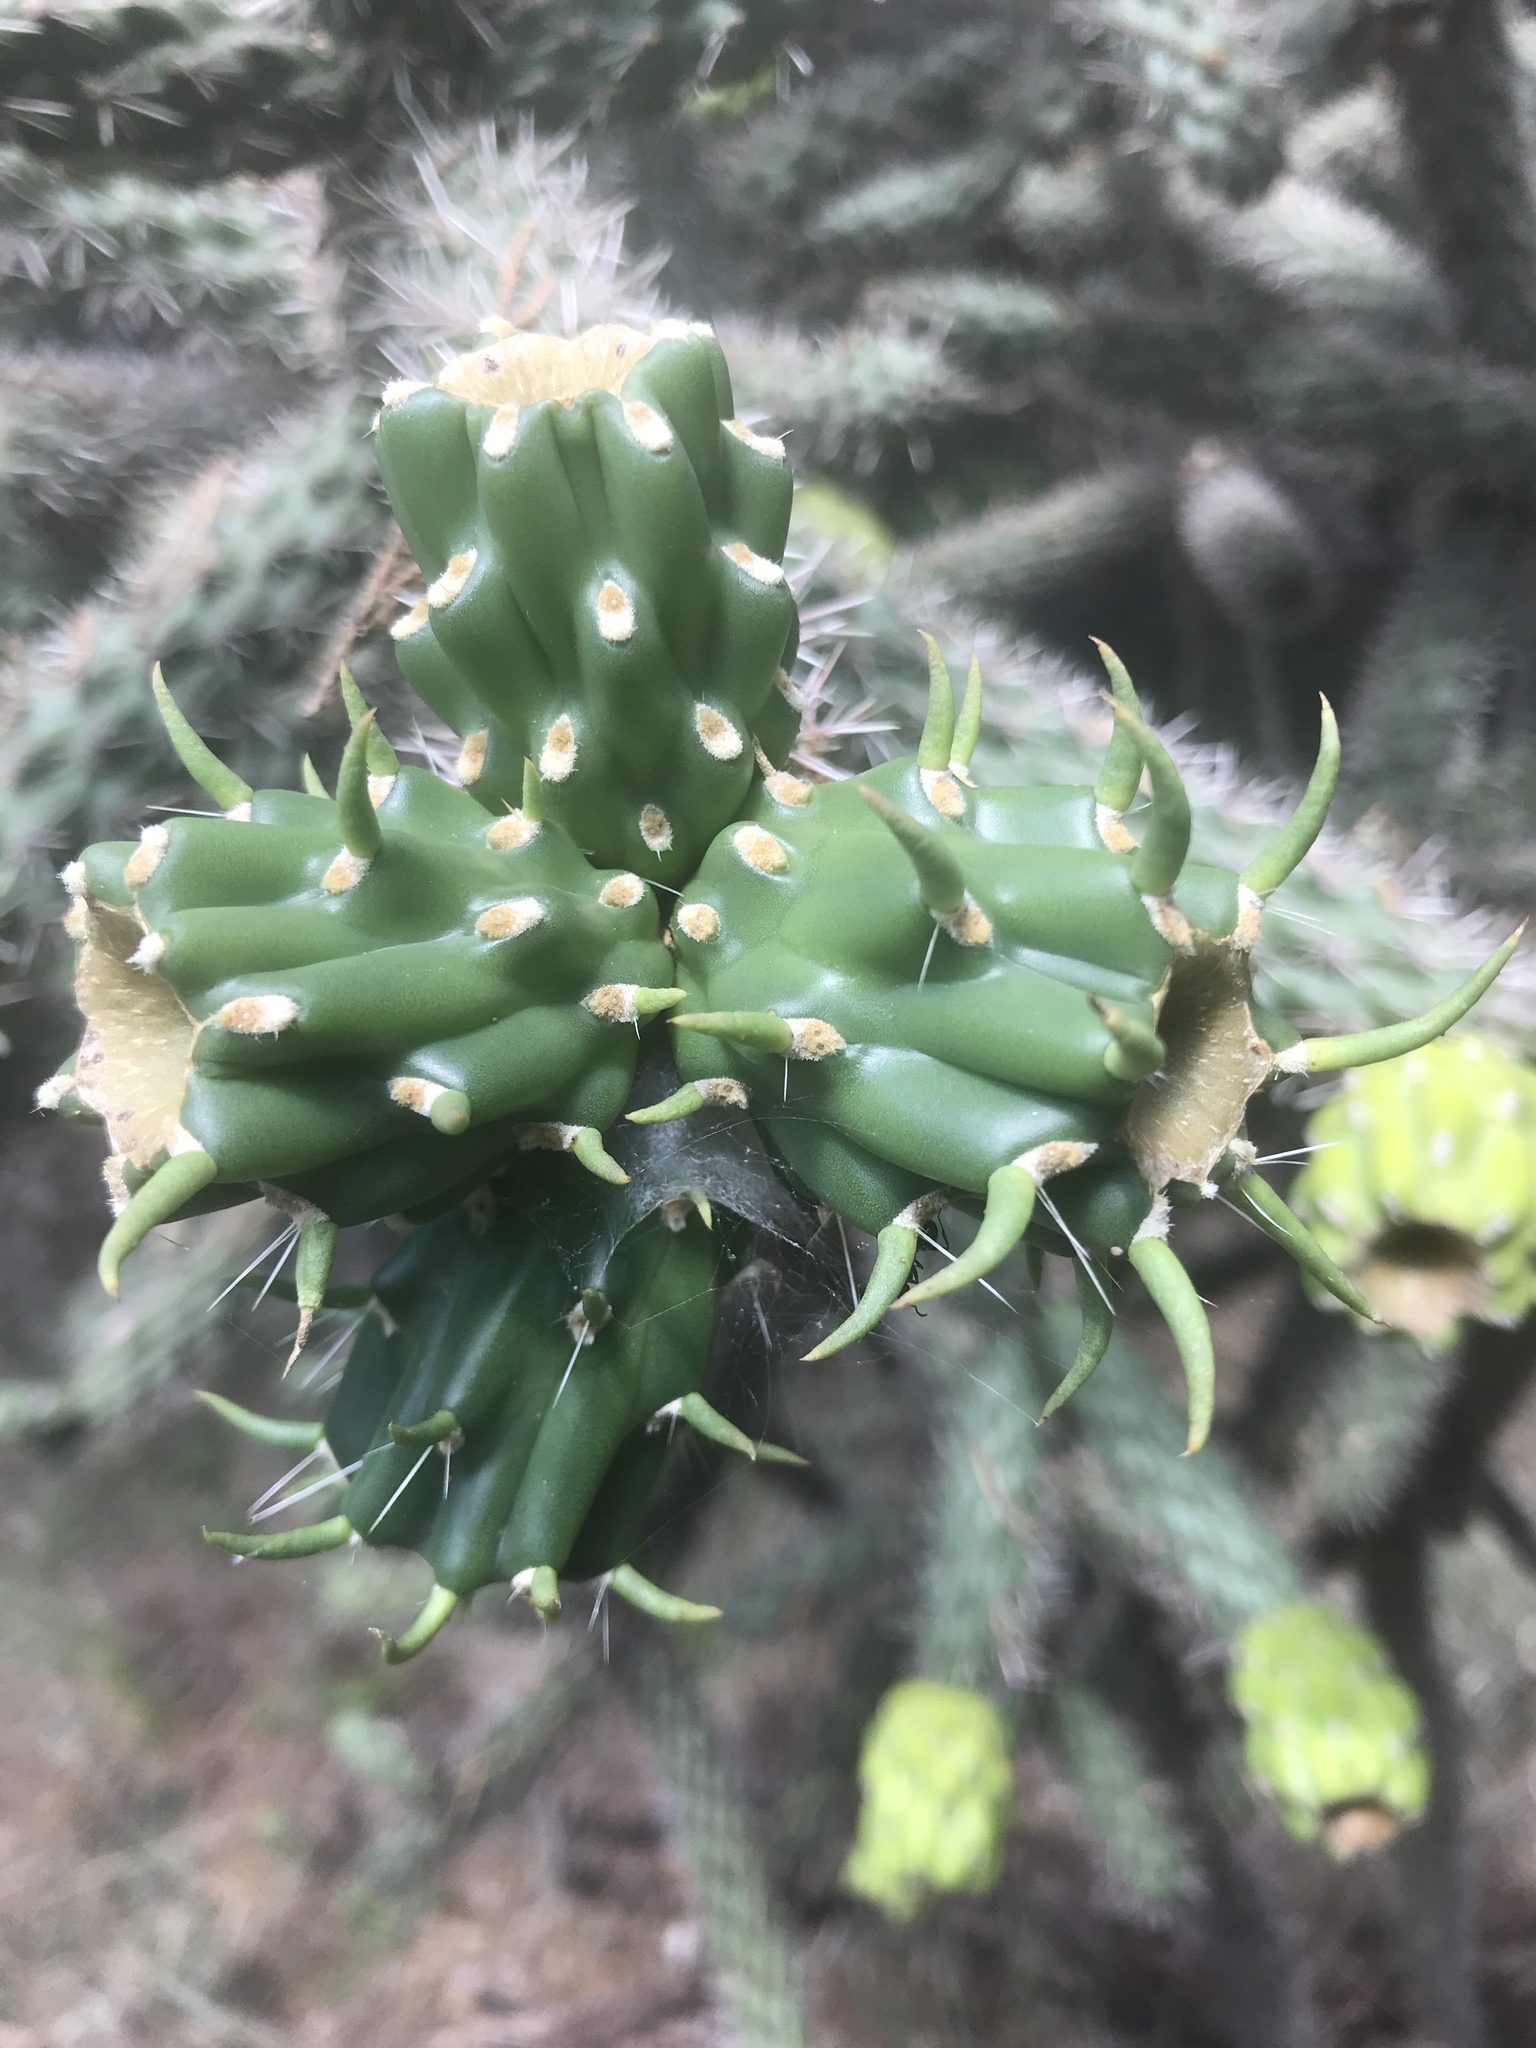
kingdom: Plantae
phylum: Tracheophyta
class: Magnoliopsida
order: Caryophyllales
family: Cactaceae
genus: Cylindropuntia
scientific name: Cylindropuntia imbricata
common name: Candelabrum cactus
